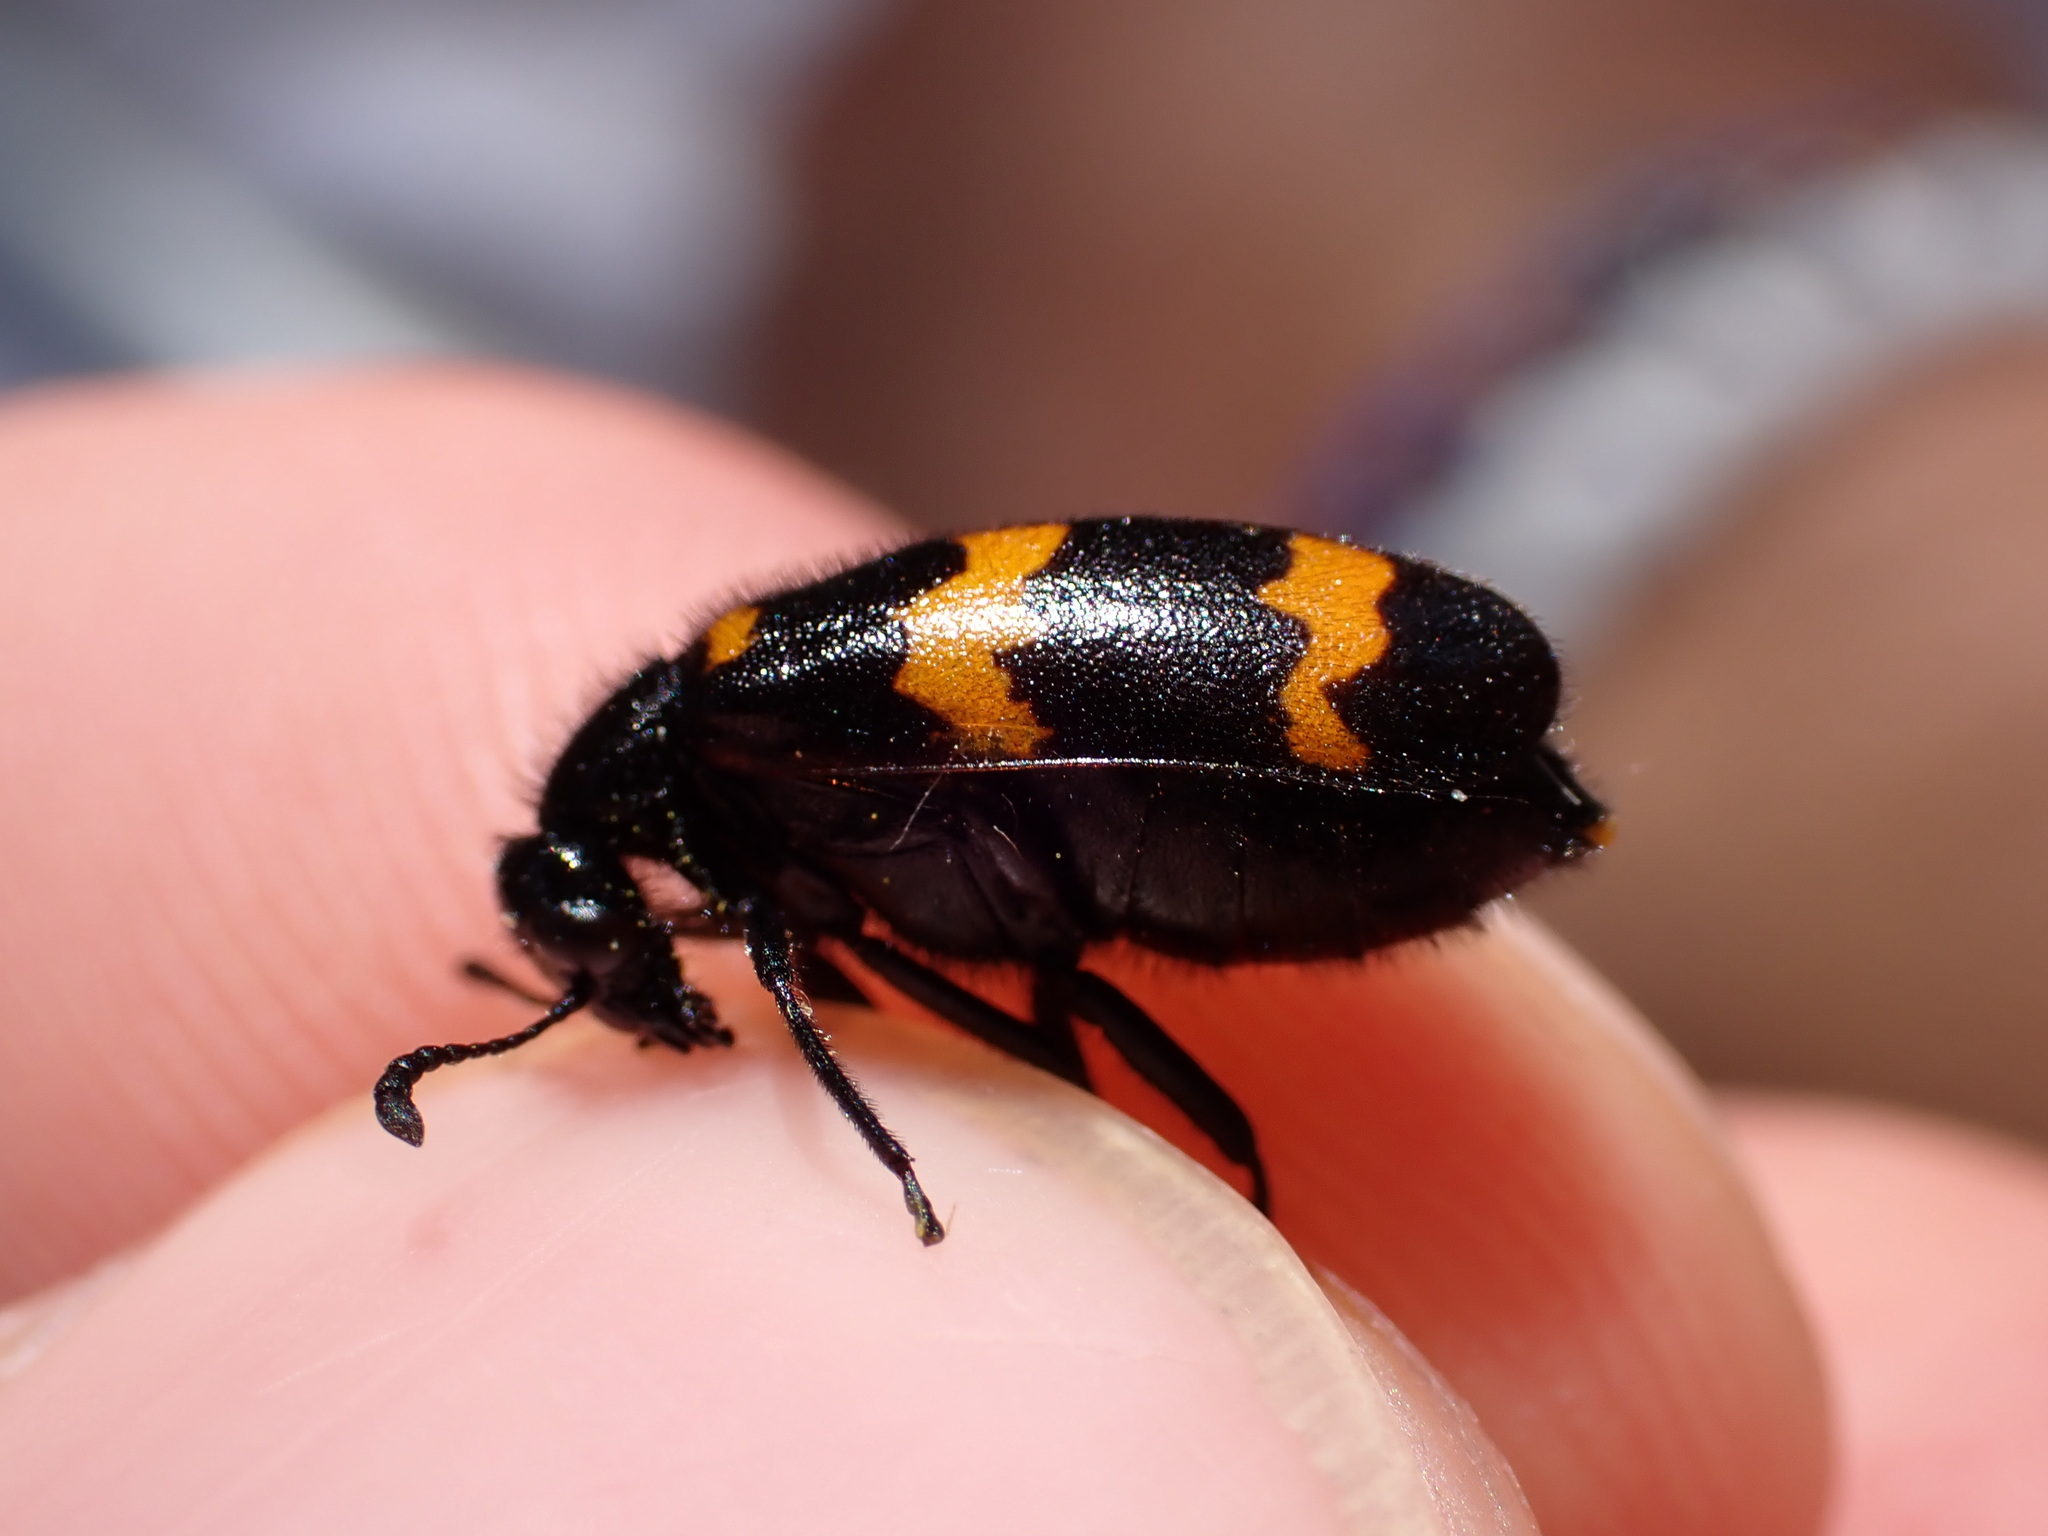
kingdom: Animalia
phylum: Arthropoda
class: Insecta
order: Coleoptera
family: Meloidae
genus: Mylabris
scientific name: Mylabris variabilis
